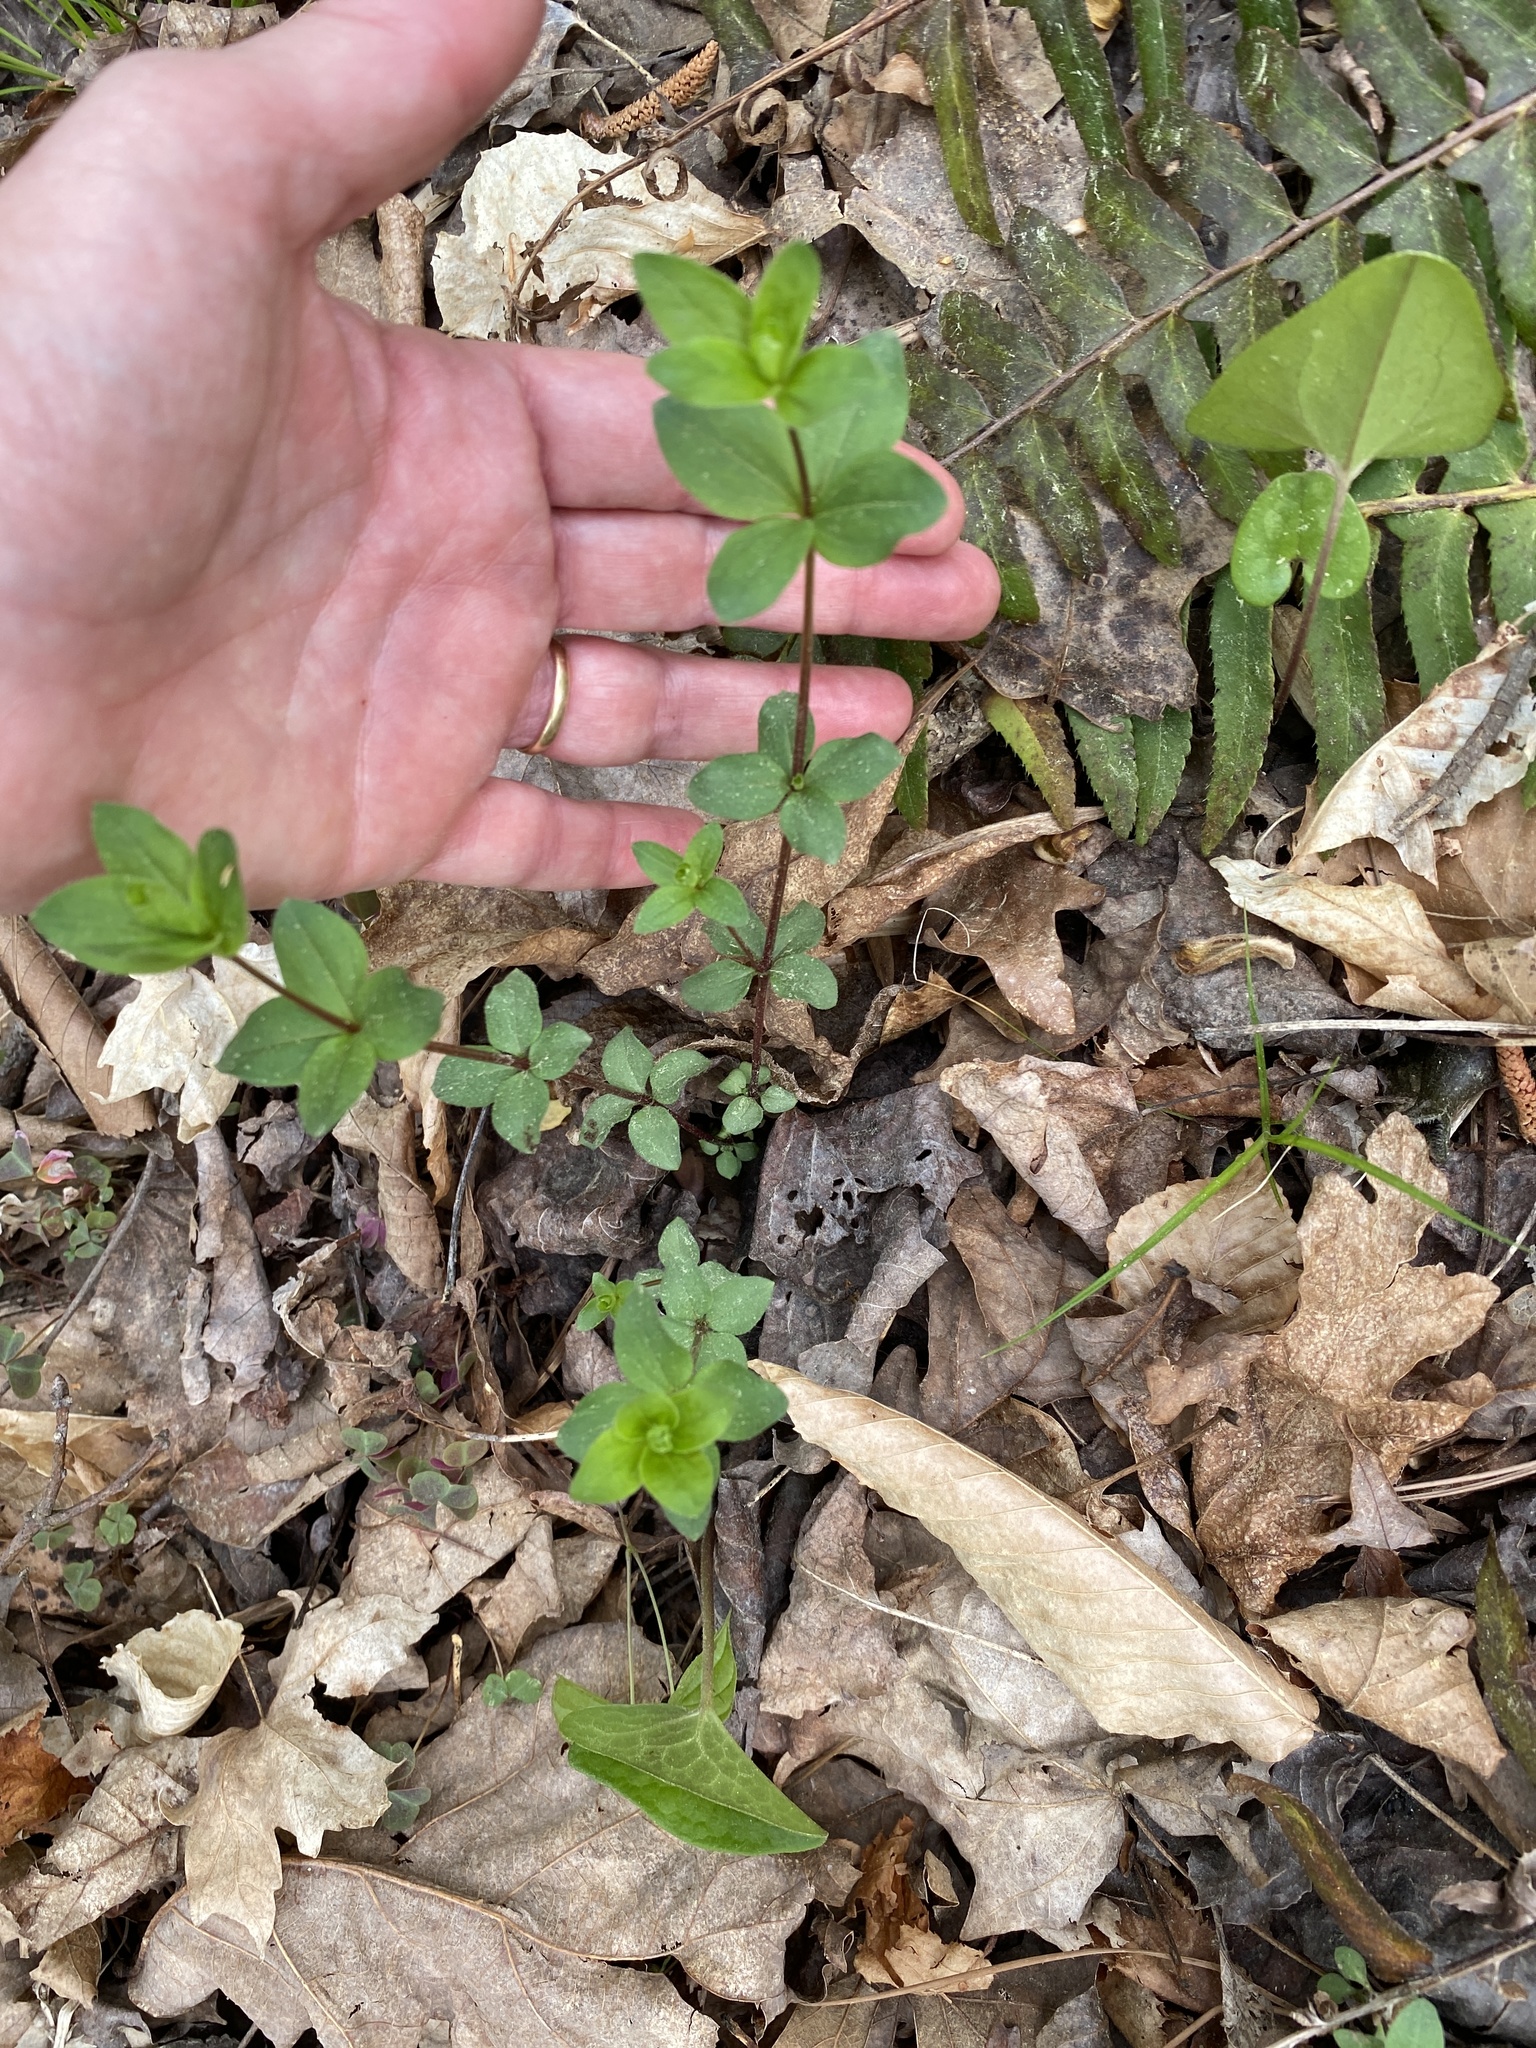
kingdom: Plantae
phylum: Tracheophyta
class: Magnoliopsida
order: Gentianales
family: Rubiaceae
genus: Galium
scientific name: Galium circaezans
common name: Forest bedstraw
